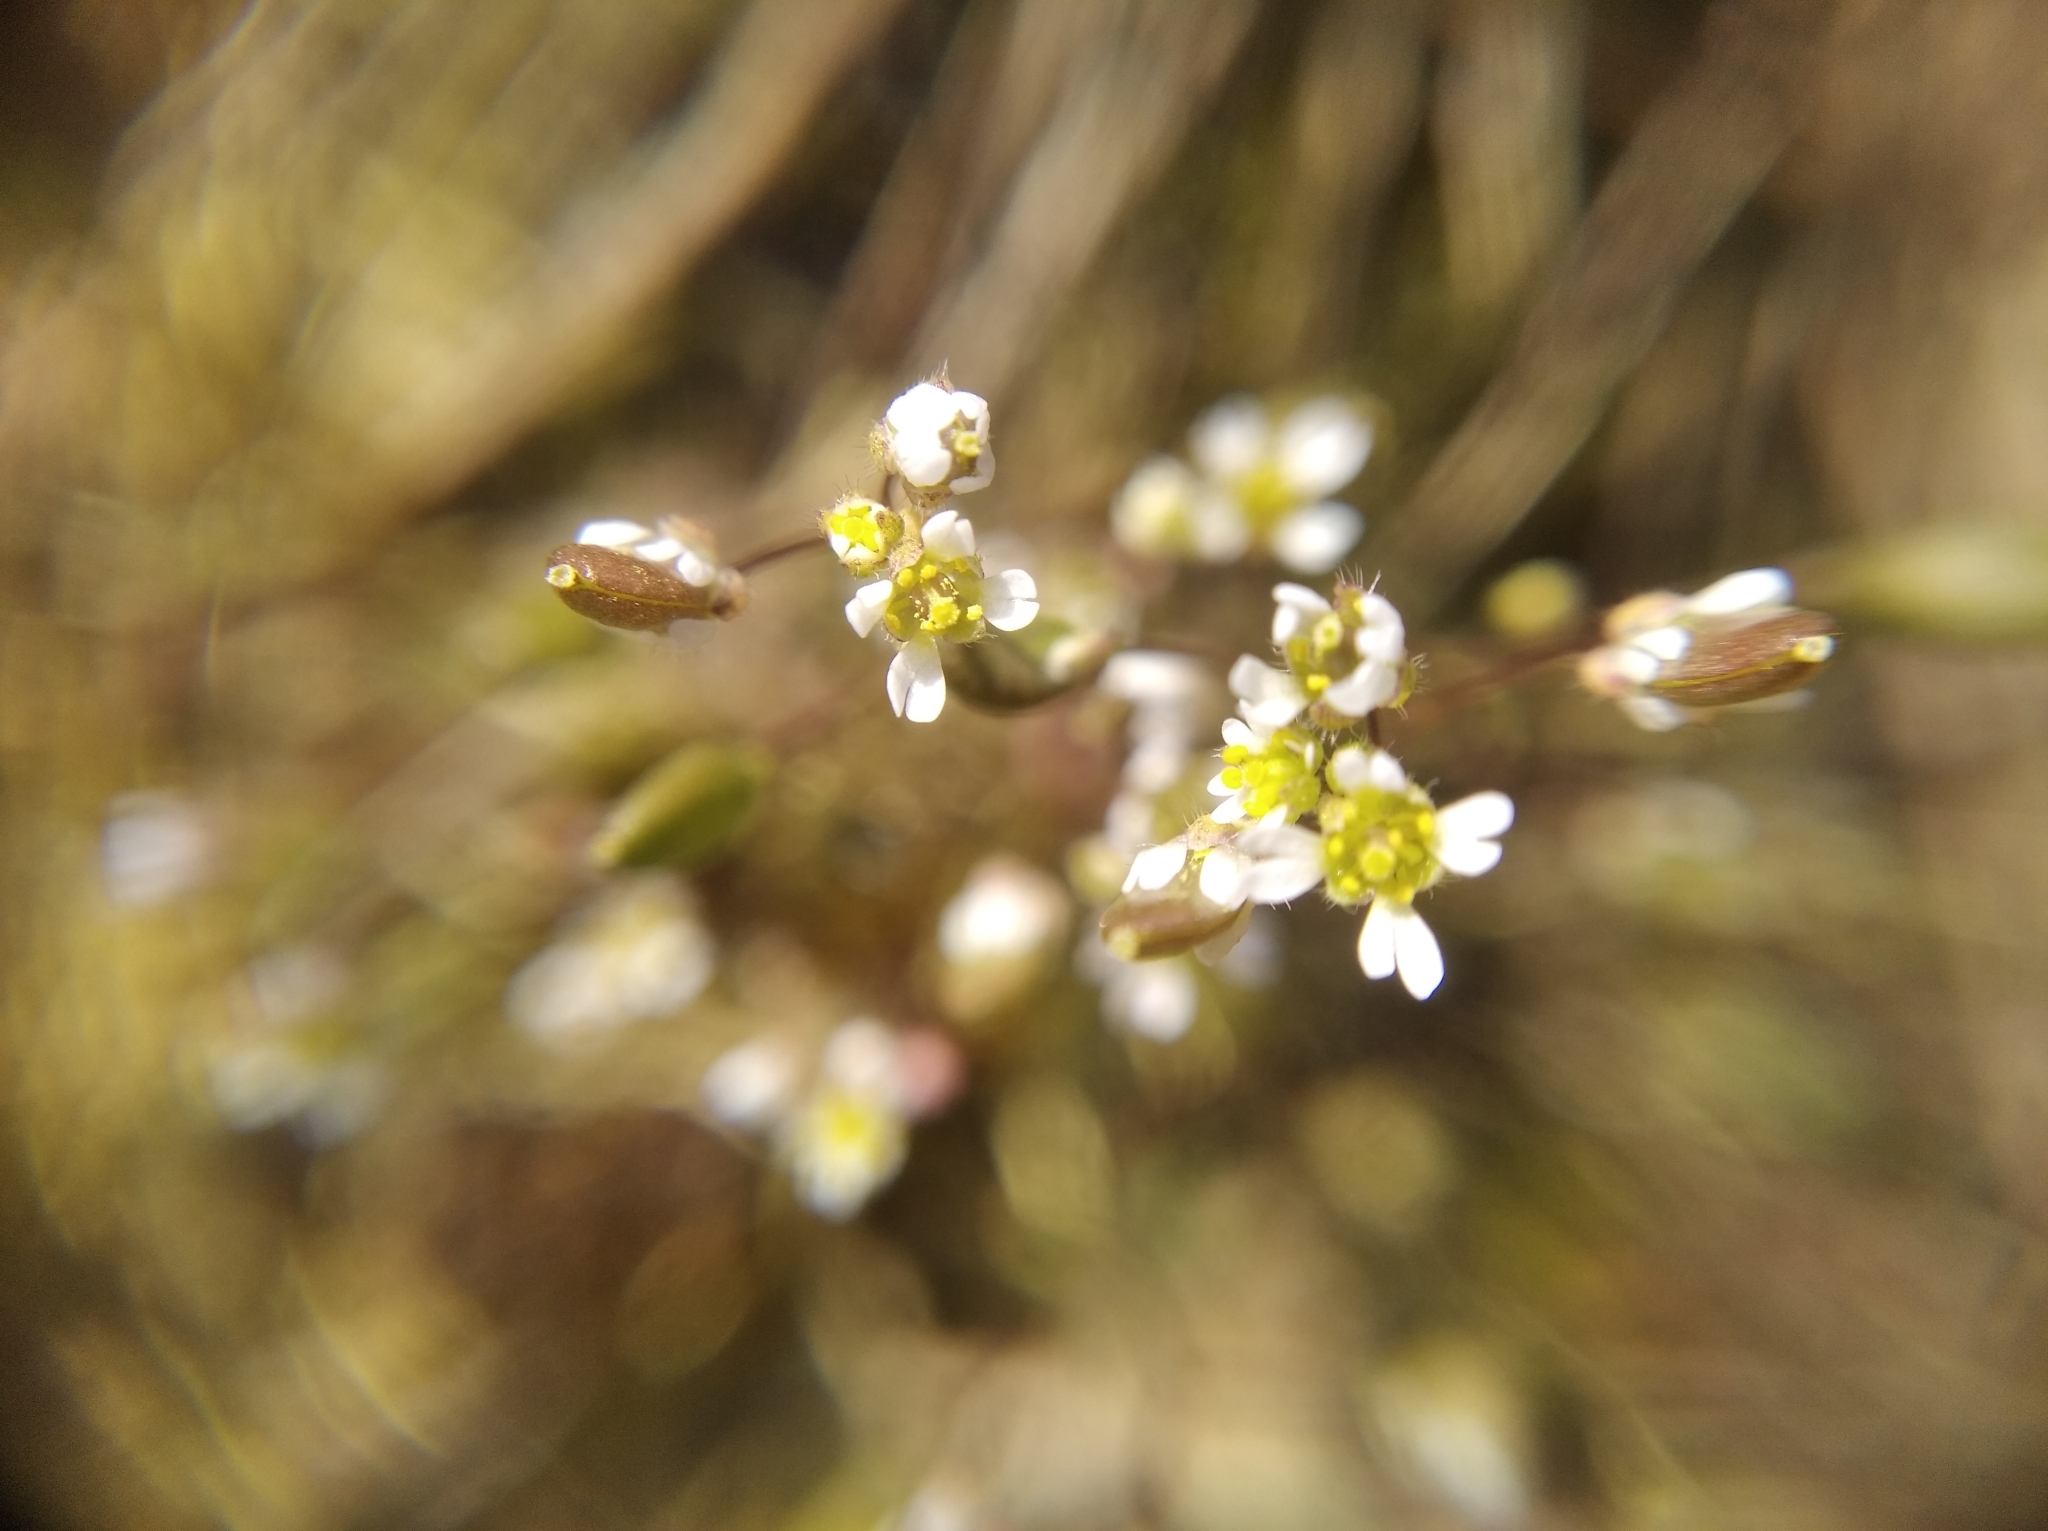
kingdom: Plantae
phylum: Tracheophyta
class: Magnoliopsida
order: Brassicales
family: Brassicaceae
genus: Draba
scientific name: Draba verna
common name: Spring draba
